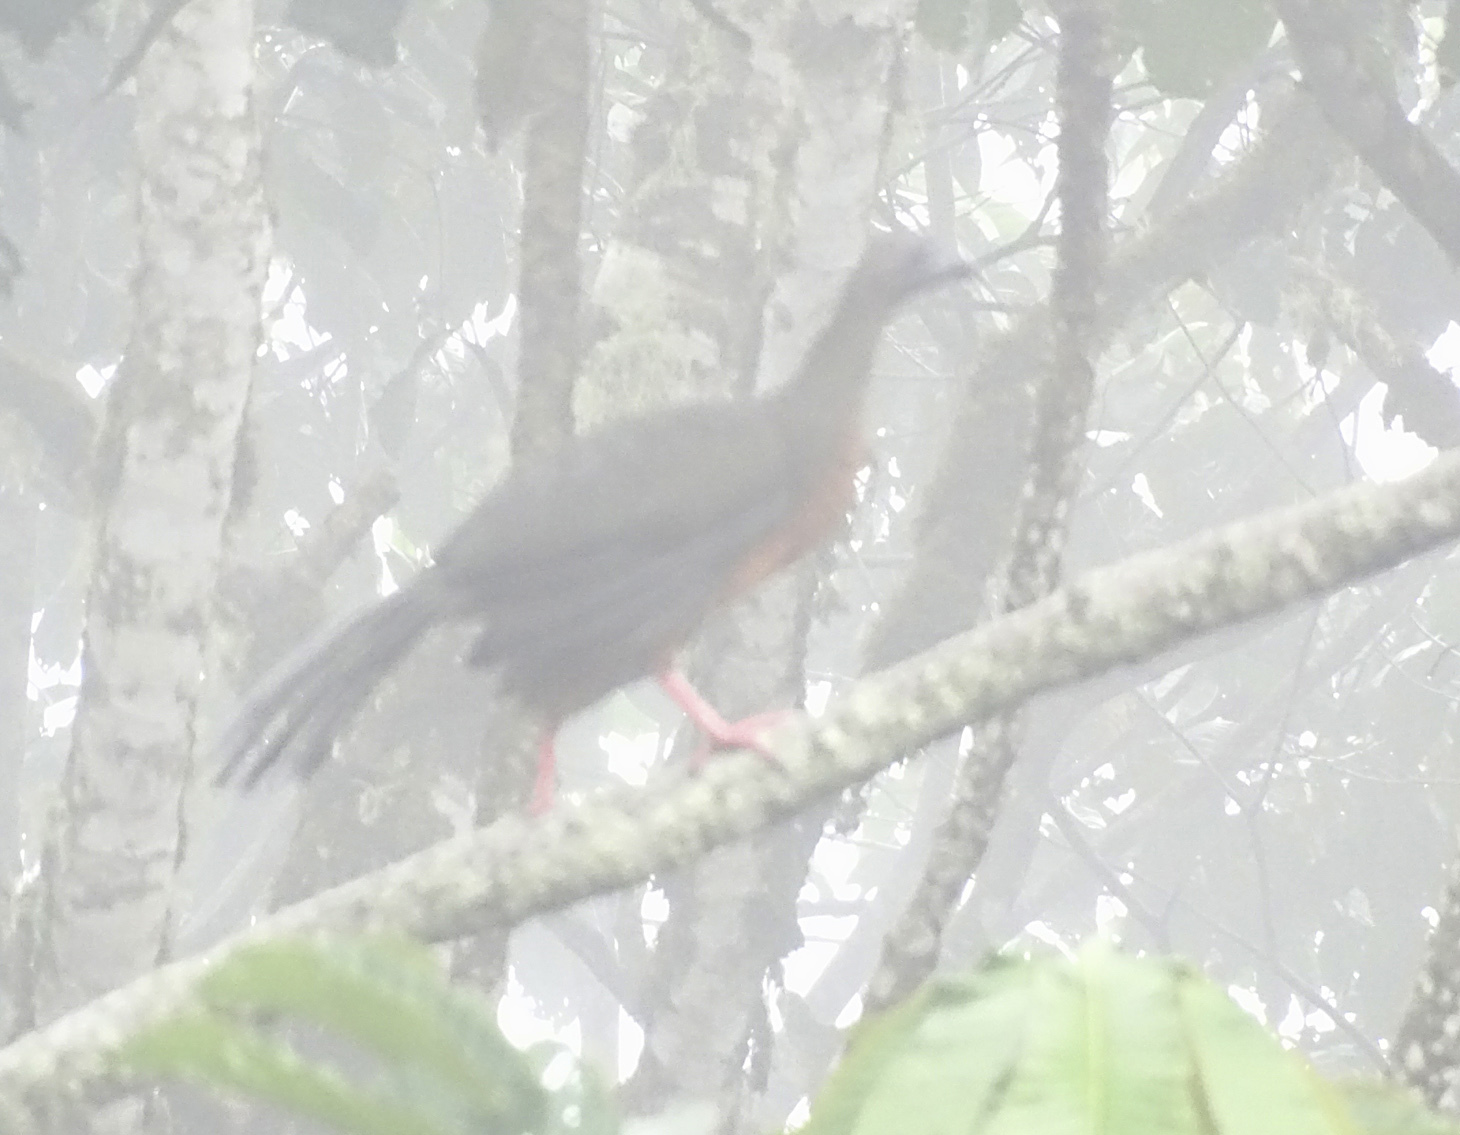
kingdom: Animalia
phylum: Chordata
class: Aves
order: Galliformes
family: Cracidae
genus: Chamaepetes
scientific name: Chamaepetes goudotii
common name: Sickle-winged guan
